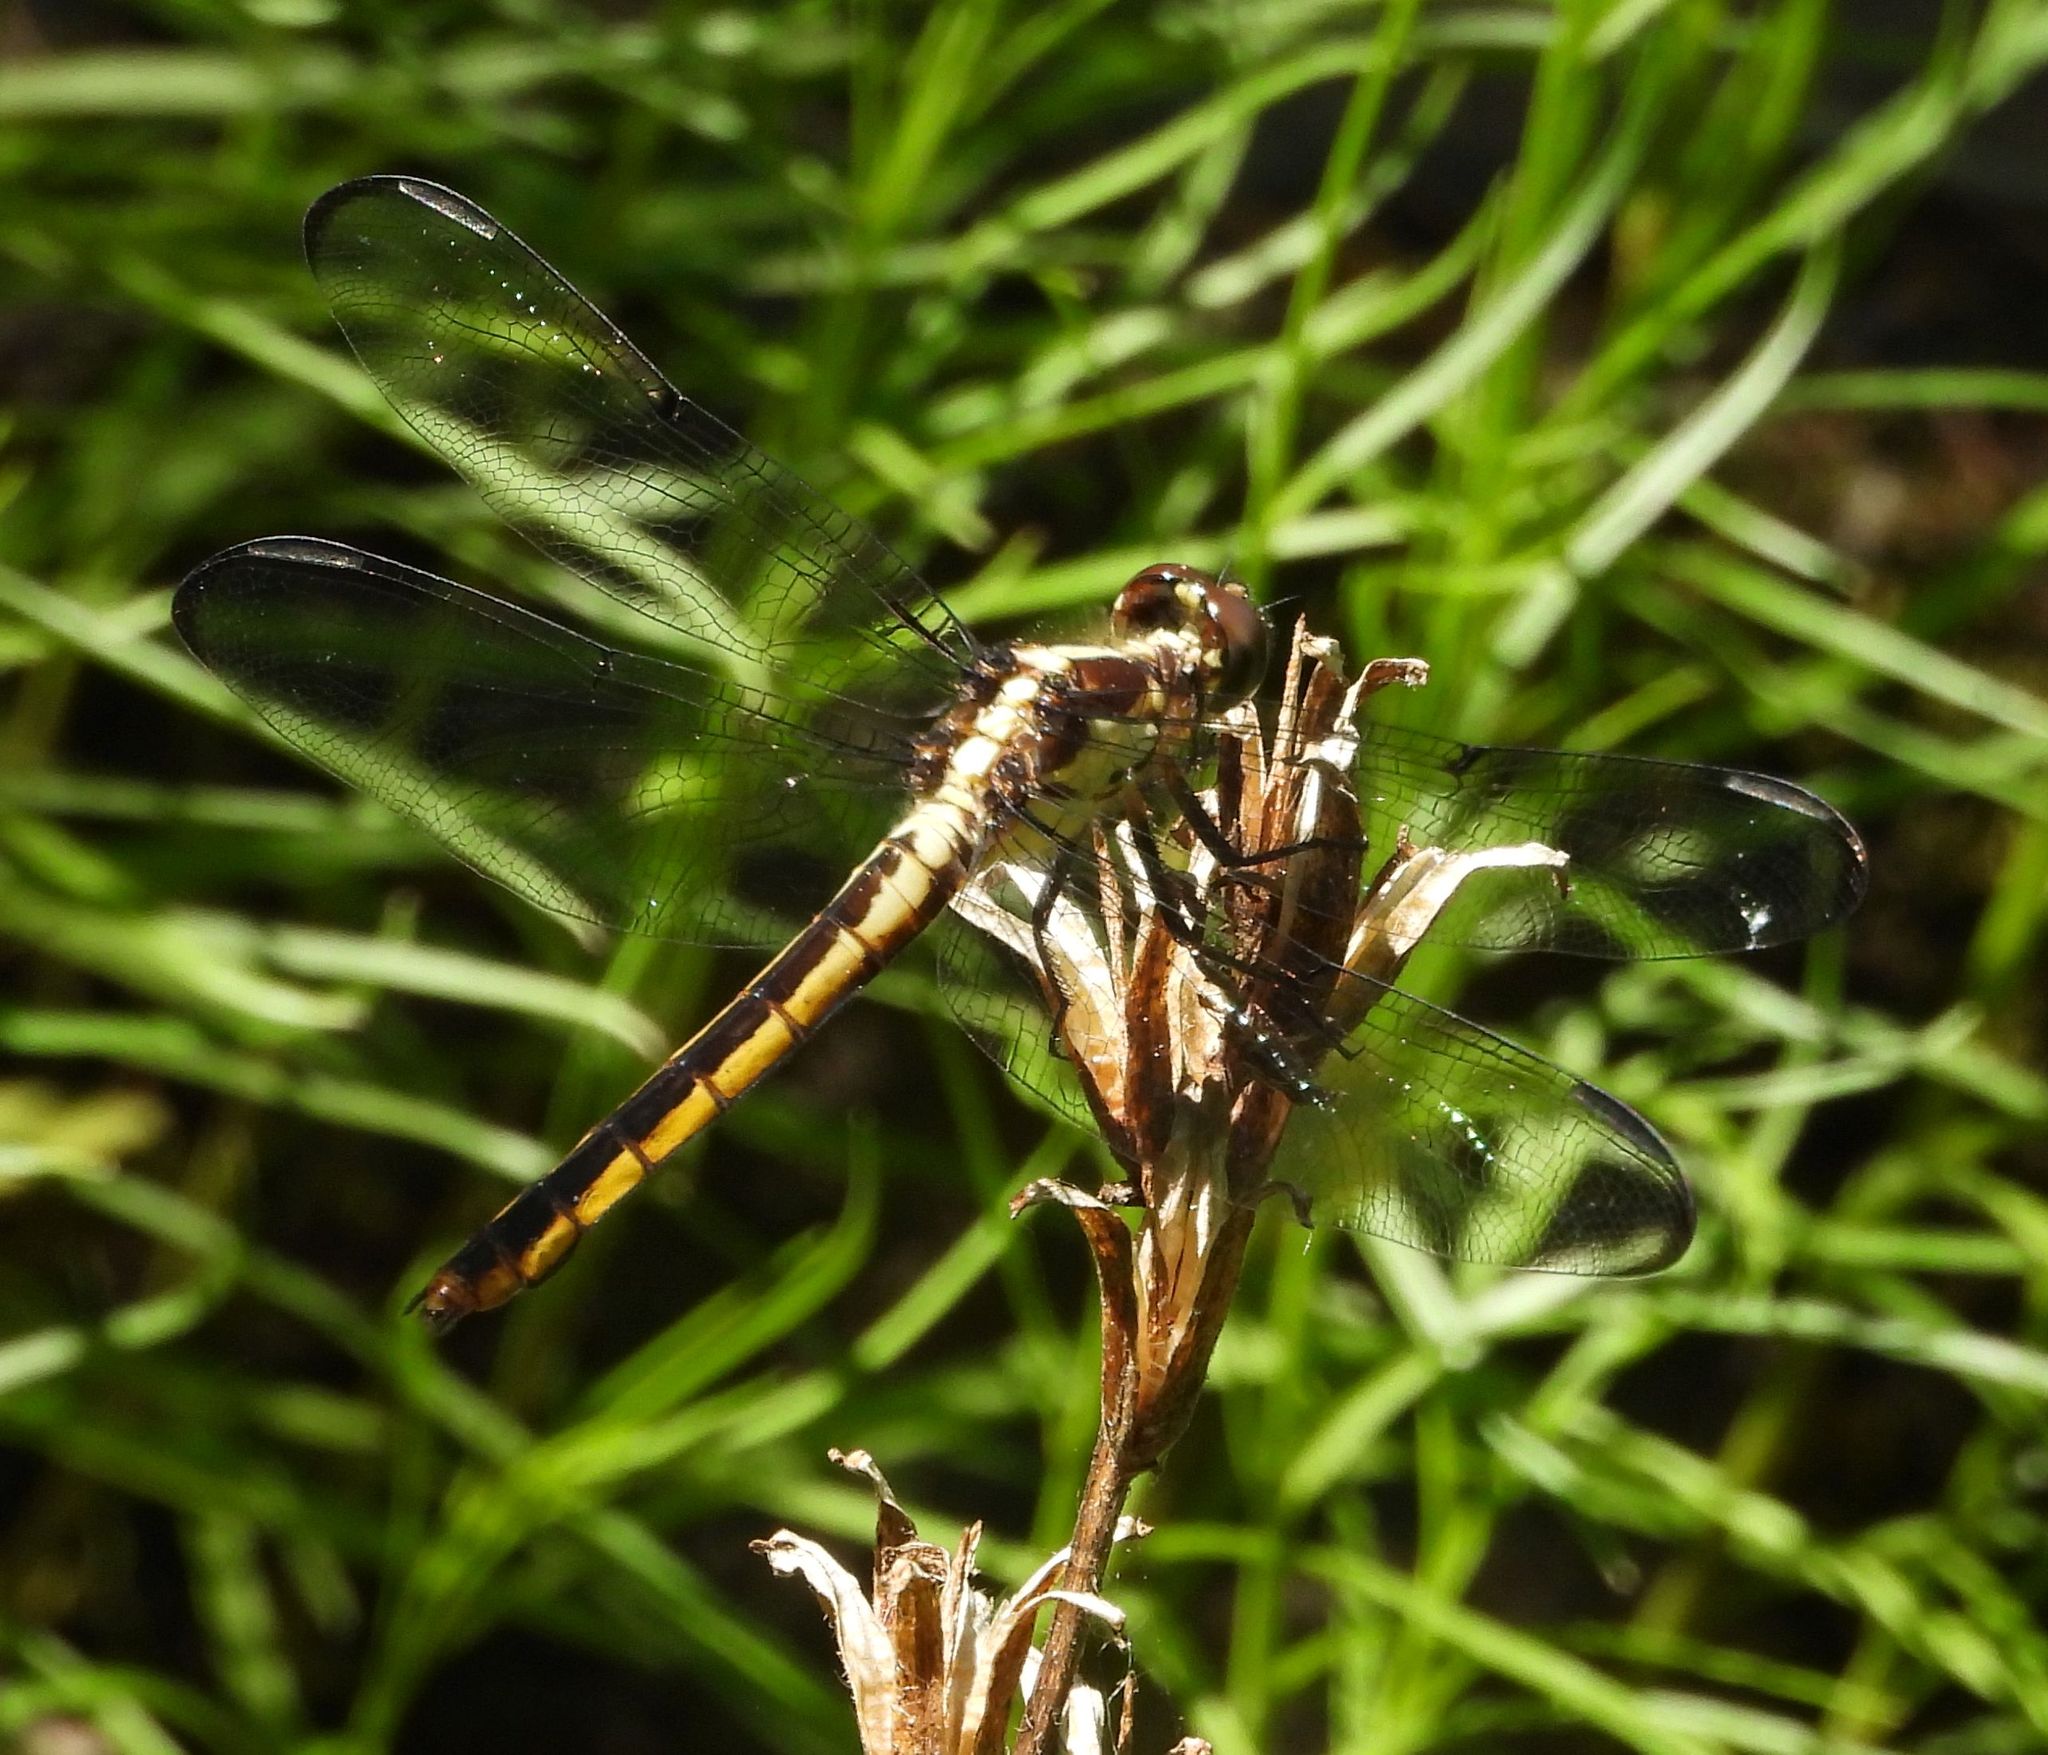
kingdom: Animalia
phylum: Arthropoda
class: Insecta
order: Odonata
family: Libellulidae
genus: Libellula
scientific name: Libellula incesta
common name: Slaty skimmer
